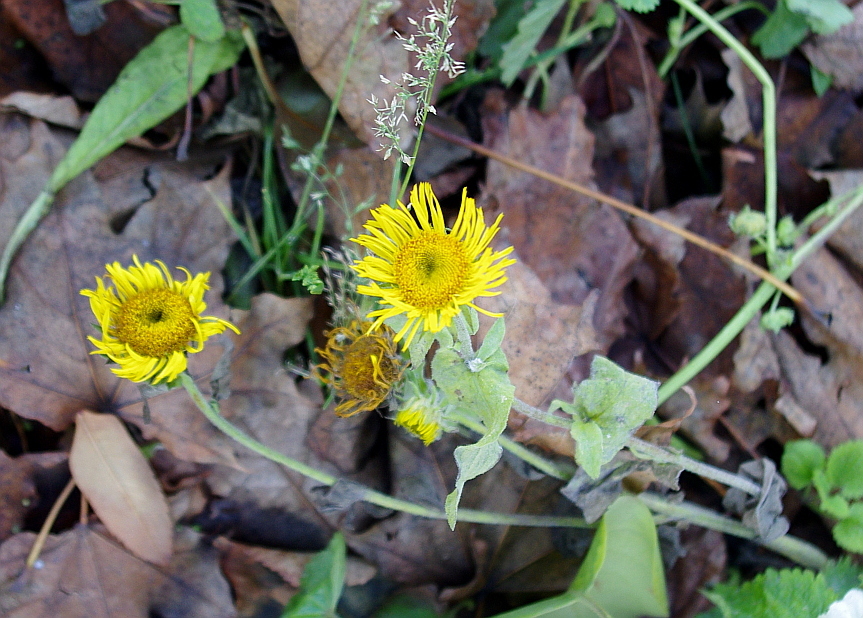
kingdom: Plantae
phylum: Tracheophyta
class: Magnoliopsida
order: Asterales
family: Asteraceae
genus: Pentanema
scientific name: Pentanema britannicum
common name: British elecampane
